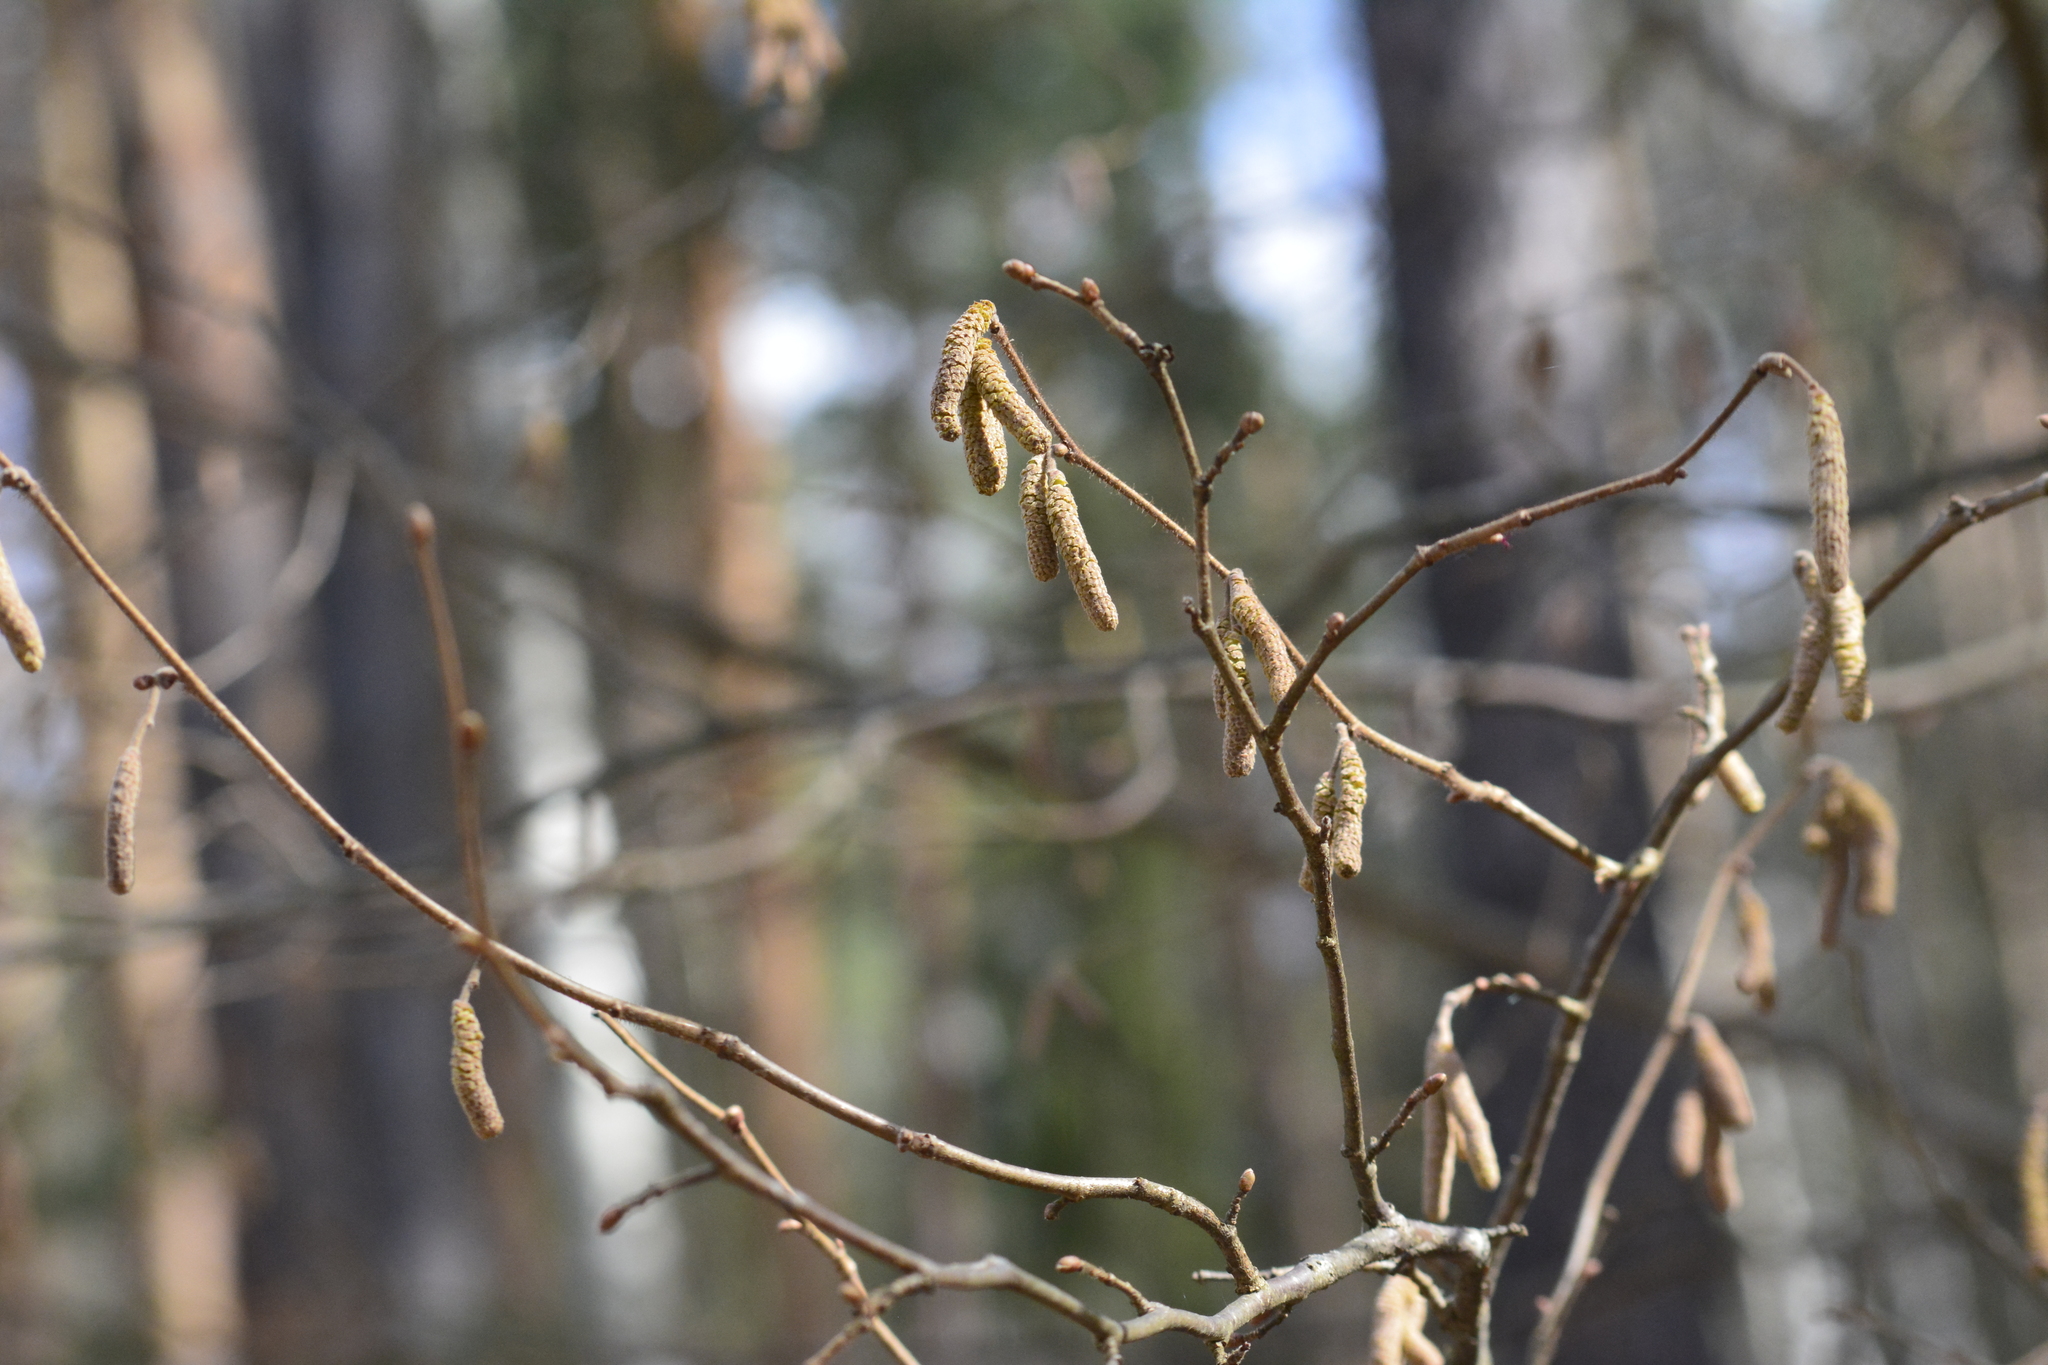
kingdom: Plantae
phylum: Tracheophyta
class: Magnoliopsida
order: Fagales
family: Betulaceae
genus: Corylus
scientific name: Corylus avellana
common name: European hazel
